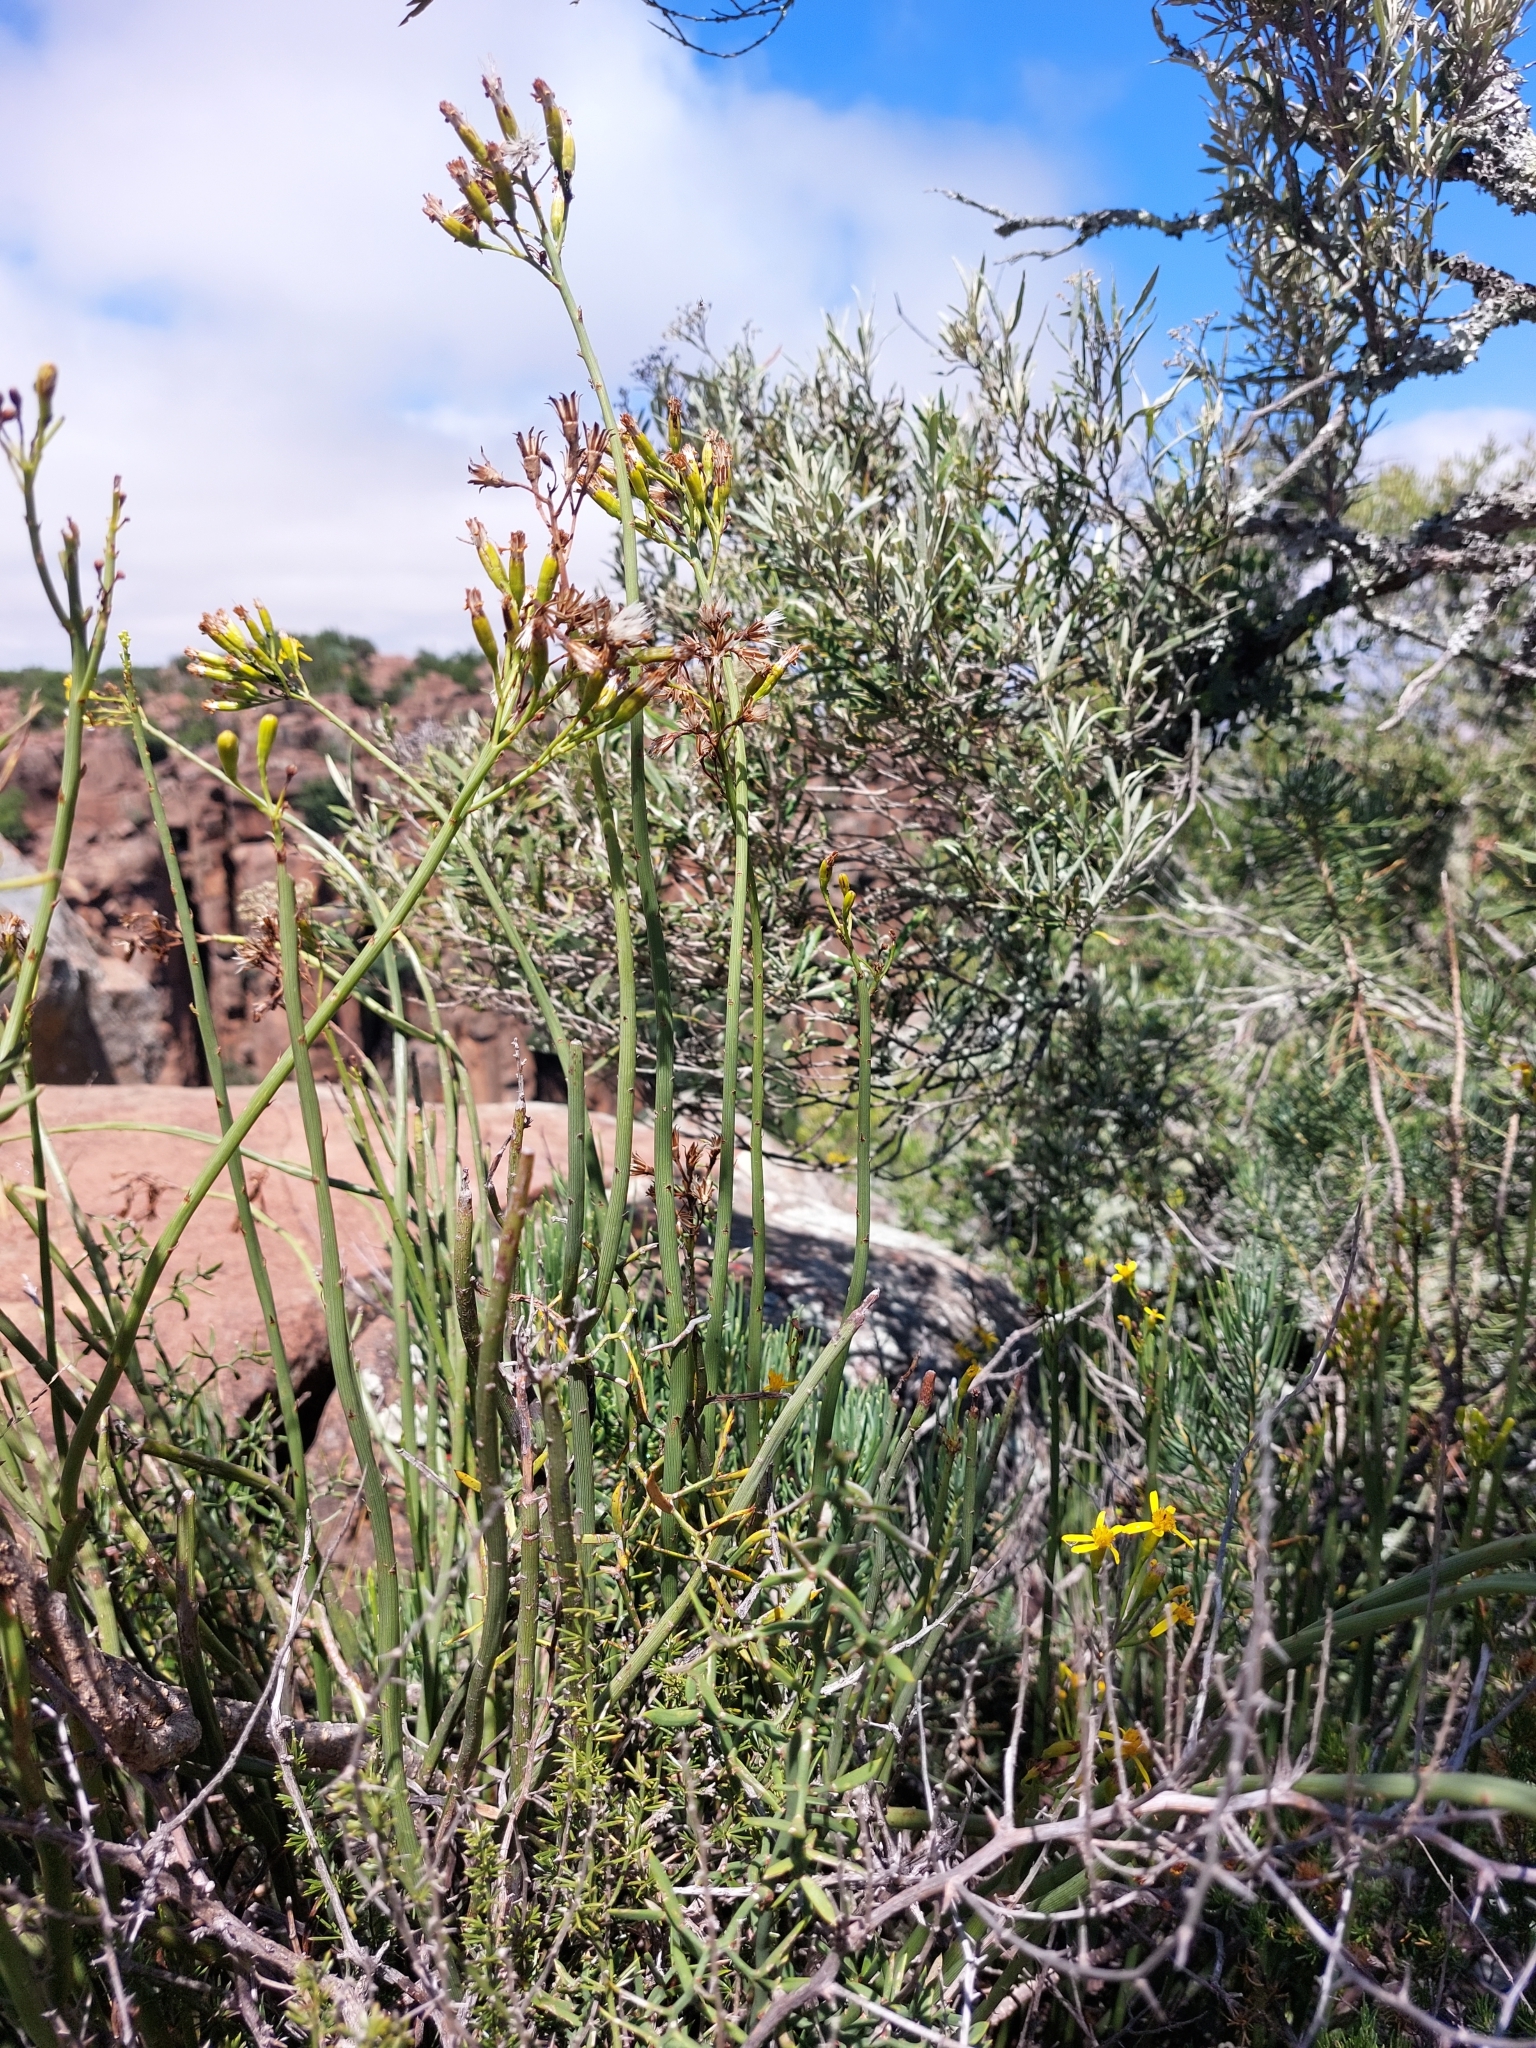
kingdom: Plantae
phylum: Tracheophyta
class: Magnoliopsida
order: Asterales
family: Asteraceae
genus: Senecio
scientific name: Senecio junceus
